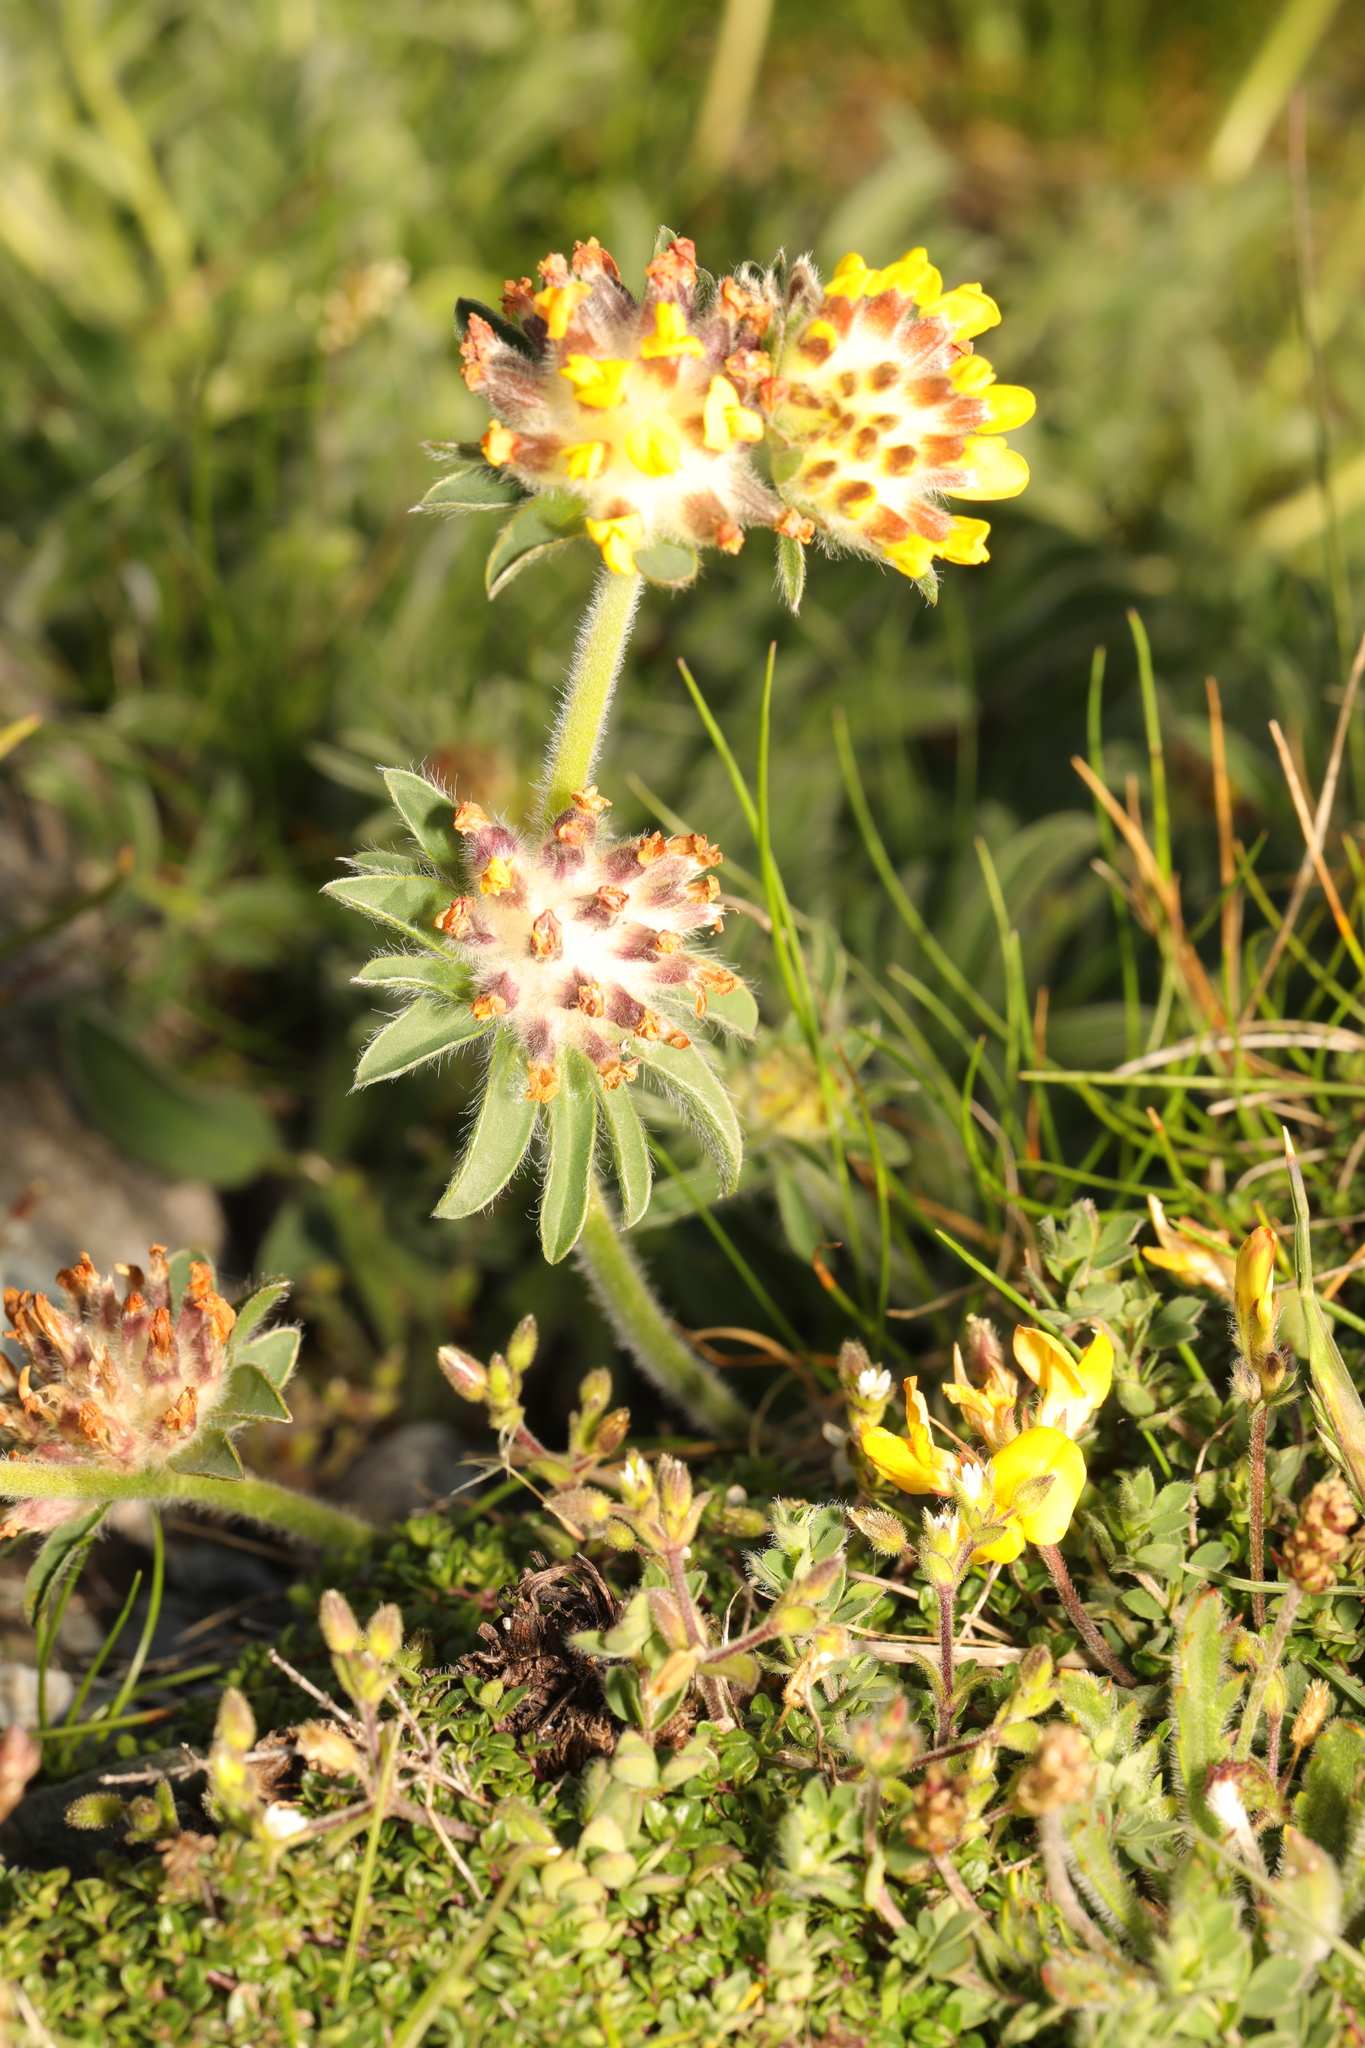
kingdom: Plantae
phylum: Tracheophyta
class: Magnoliopsida
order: Fabales
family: Fabaceae
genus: Anthyllis
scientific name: Anthyllis vulneraria
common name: Kidney vetch
